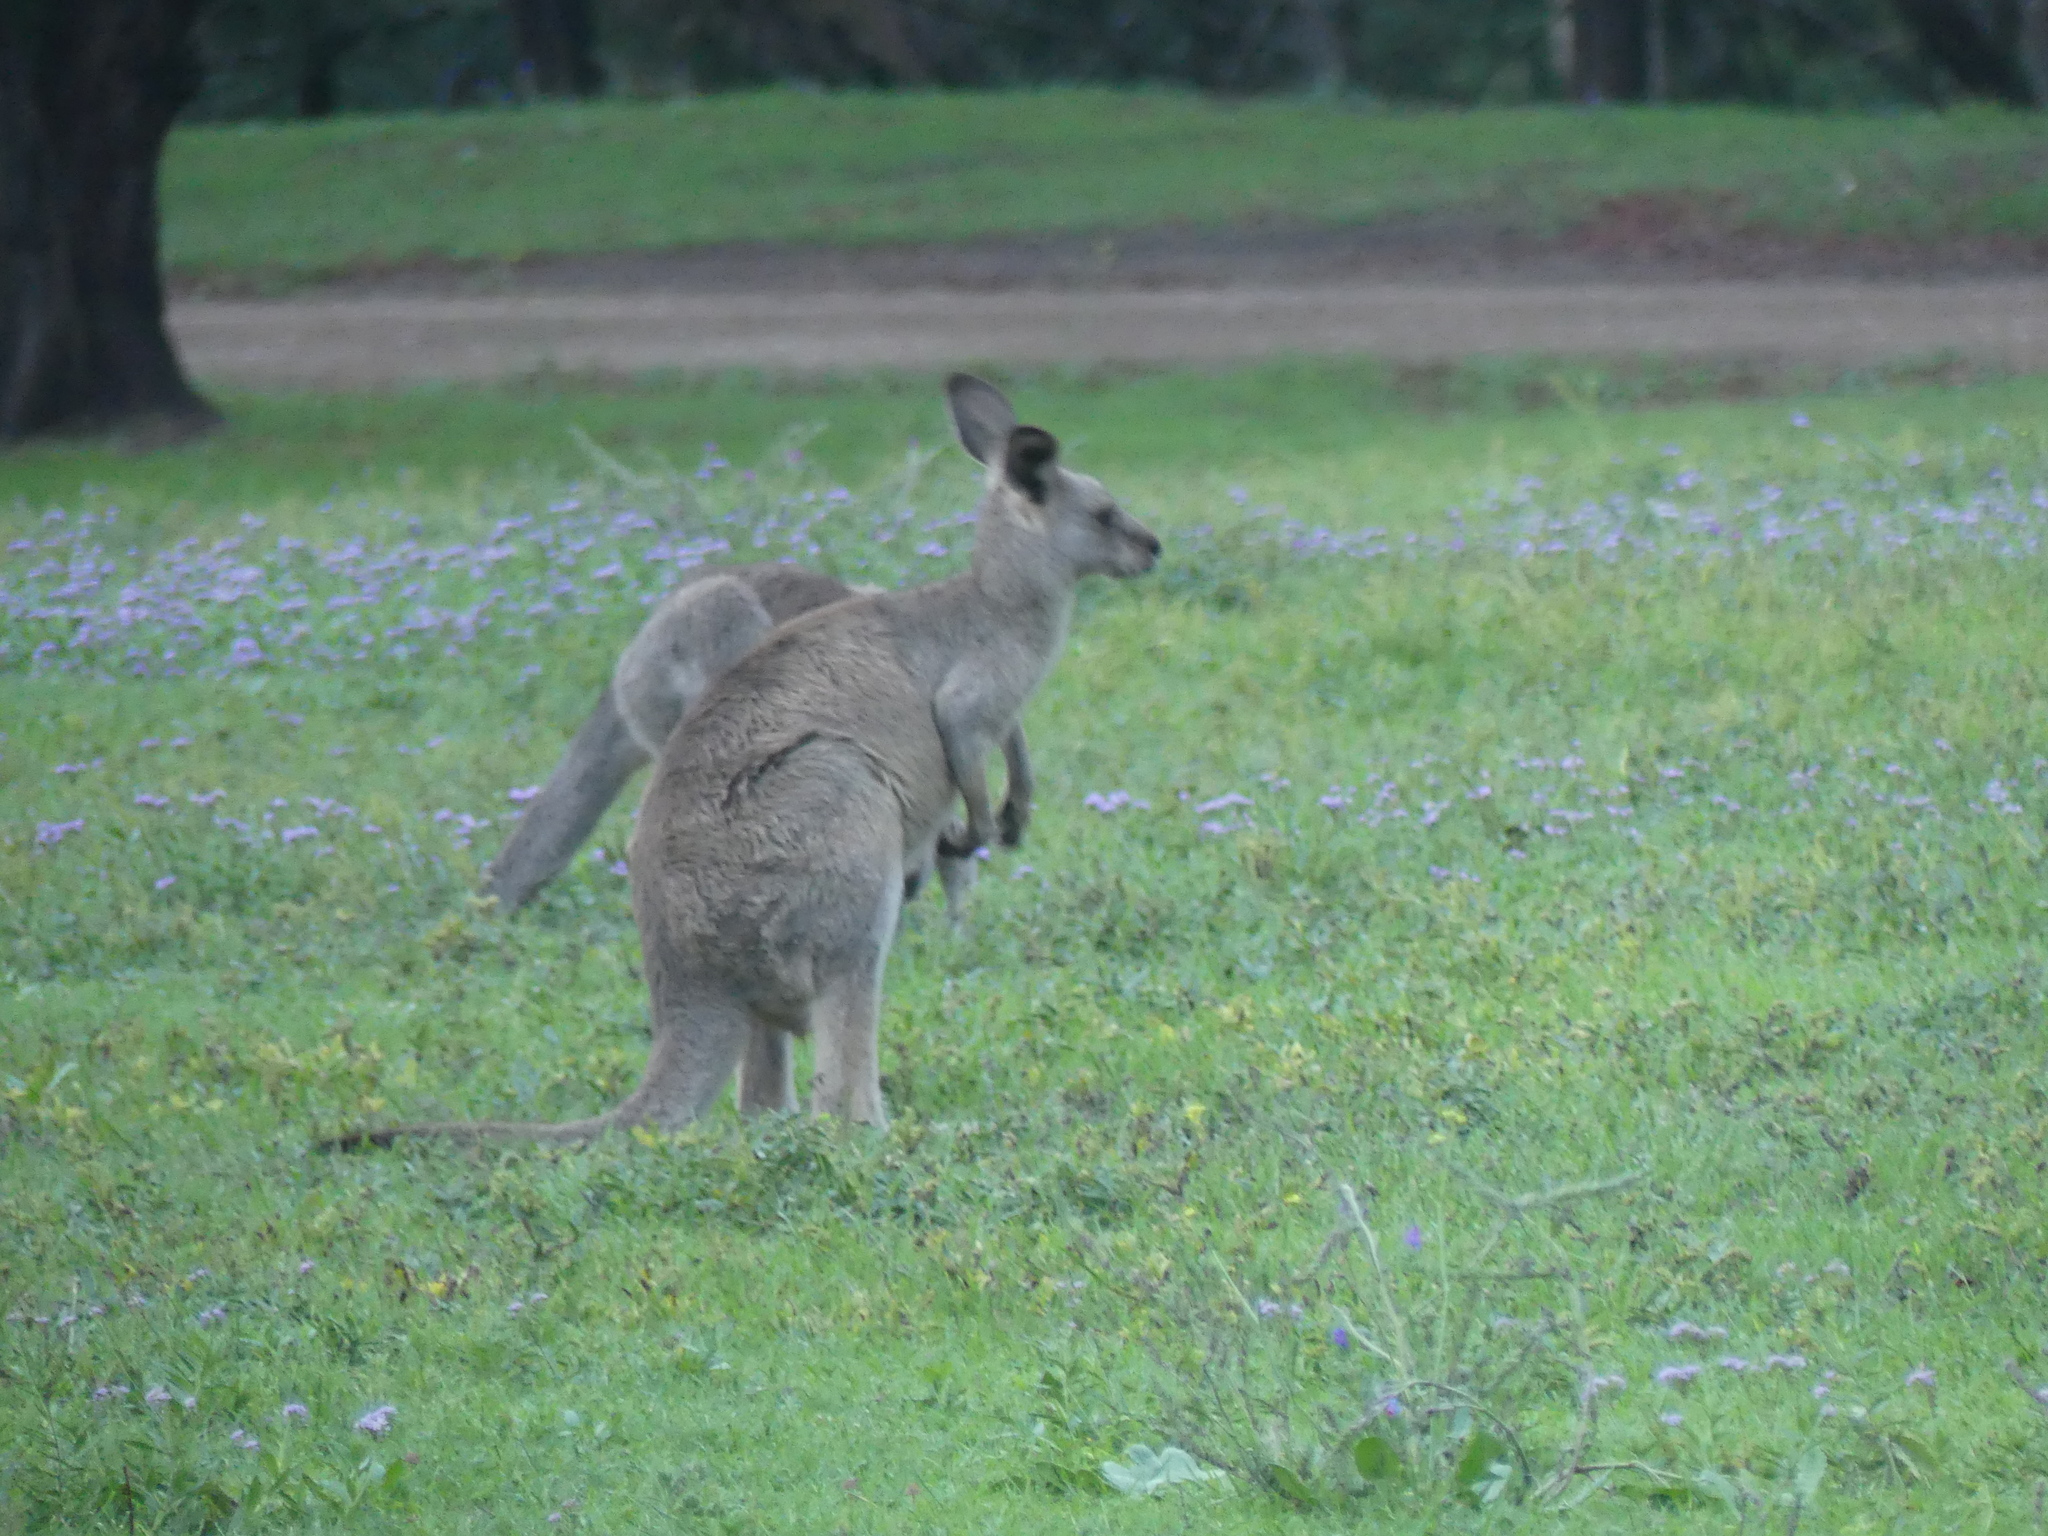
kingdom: Animalia
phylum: Chordata
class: Mammalia
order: Diprotodontia
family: Macropodidae
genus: Macropus
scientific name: Macropus giganteus
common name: Eastern grey kangaroo
